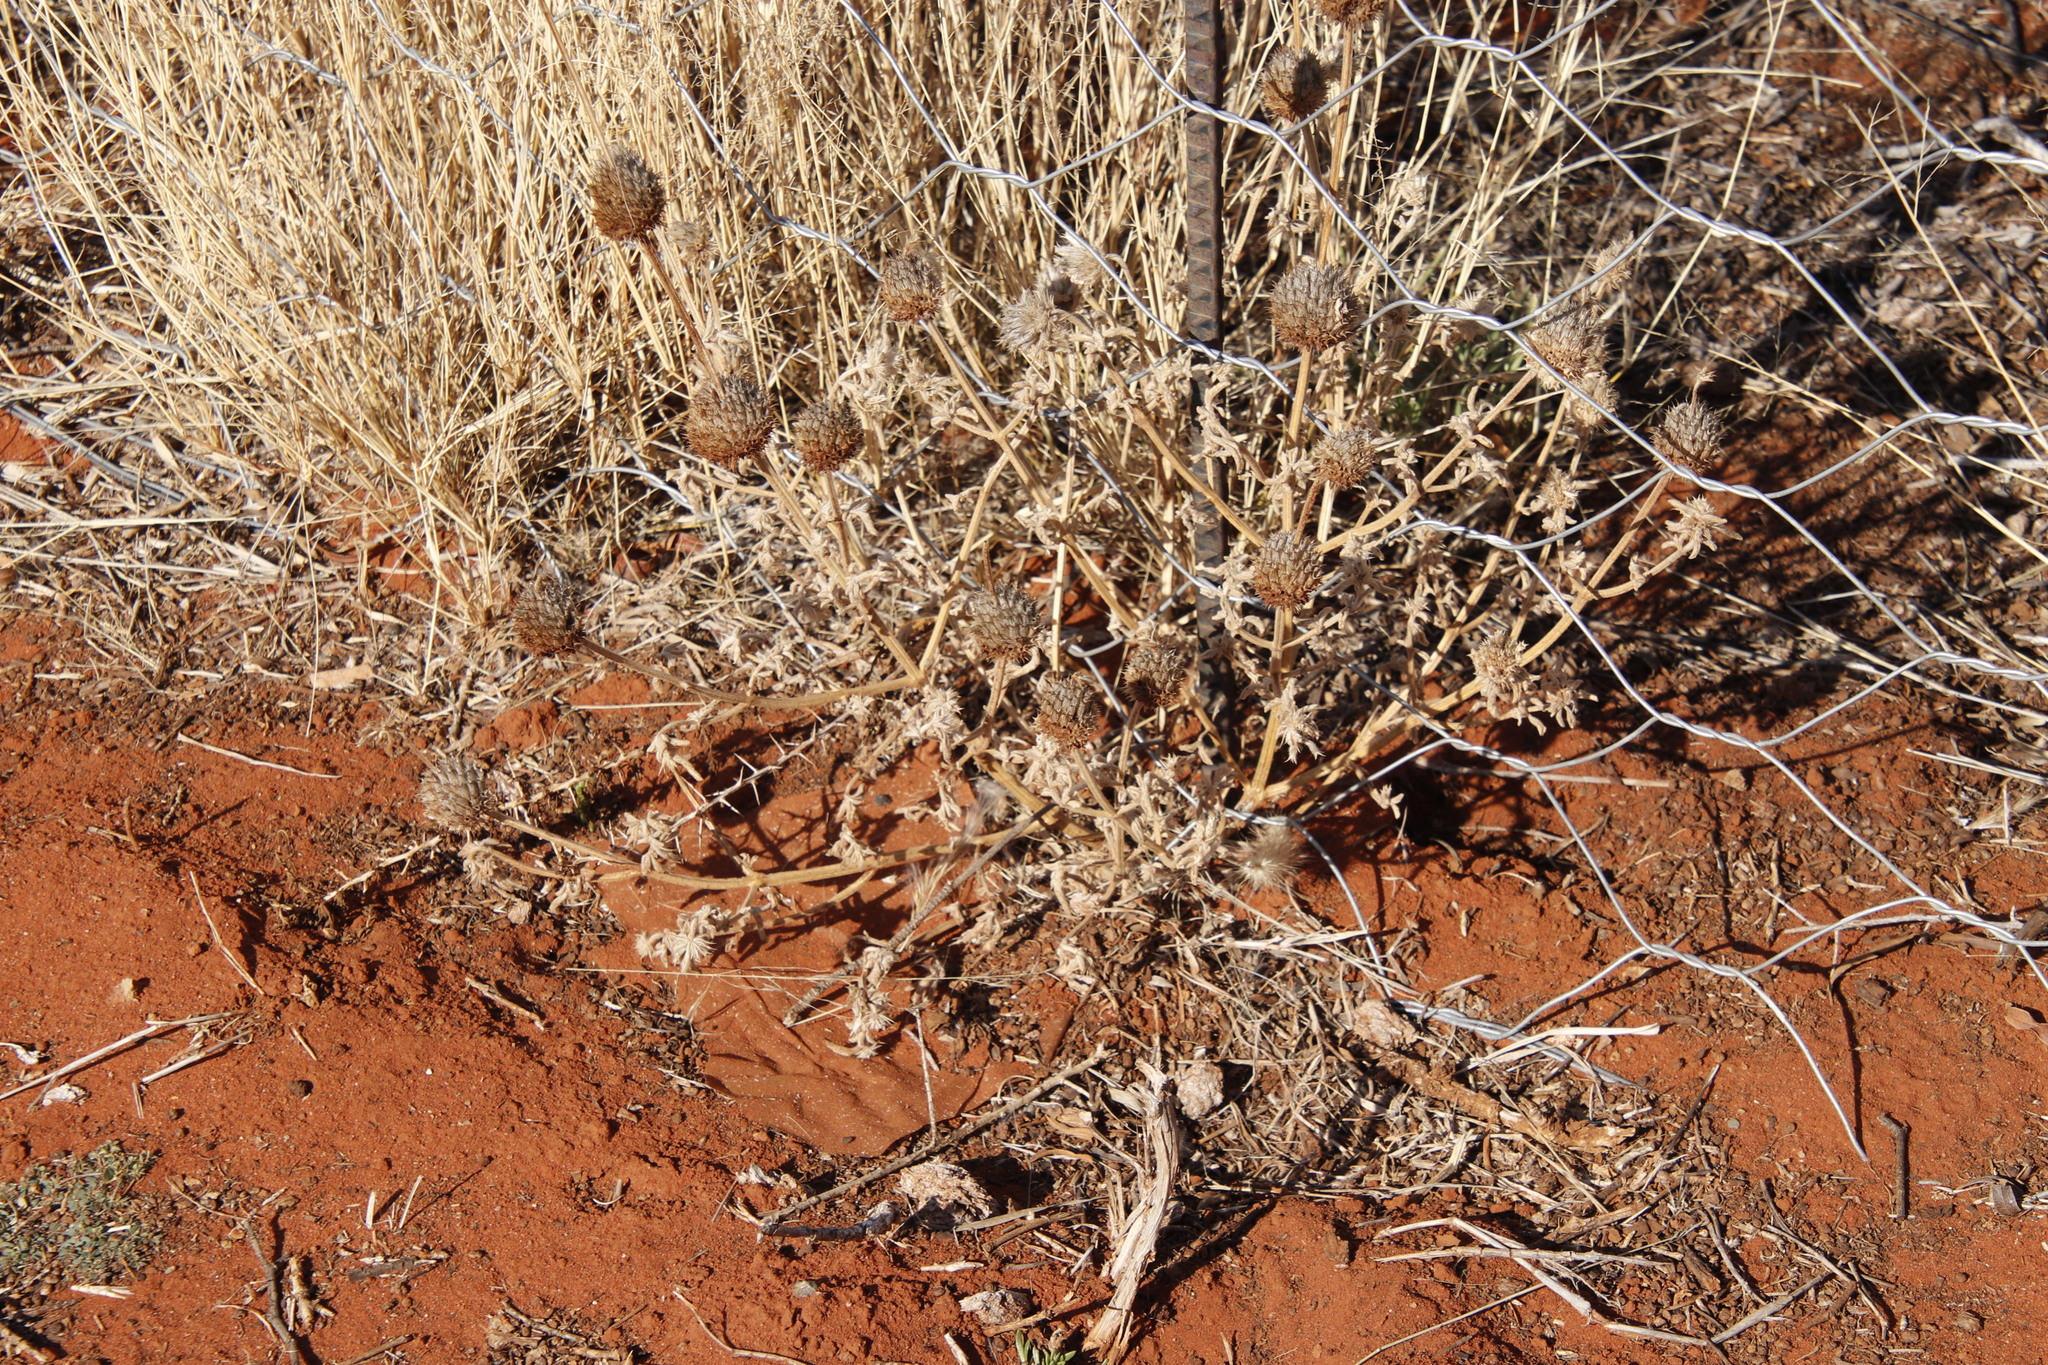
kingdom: Plantae
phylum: Tracheophyta
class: Magnoliopsida
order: Lamiales
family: Lamiaceae
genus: Acrotome
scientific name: Acrotome inflata
